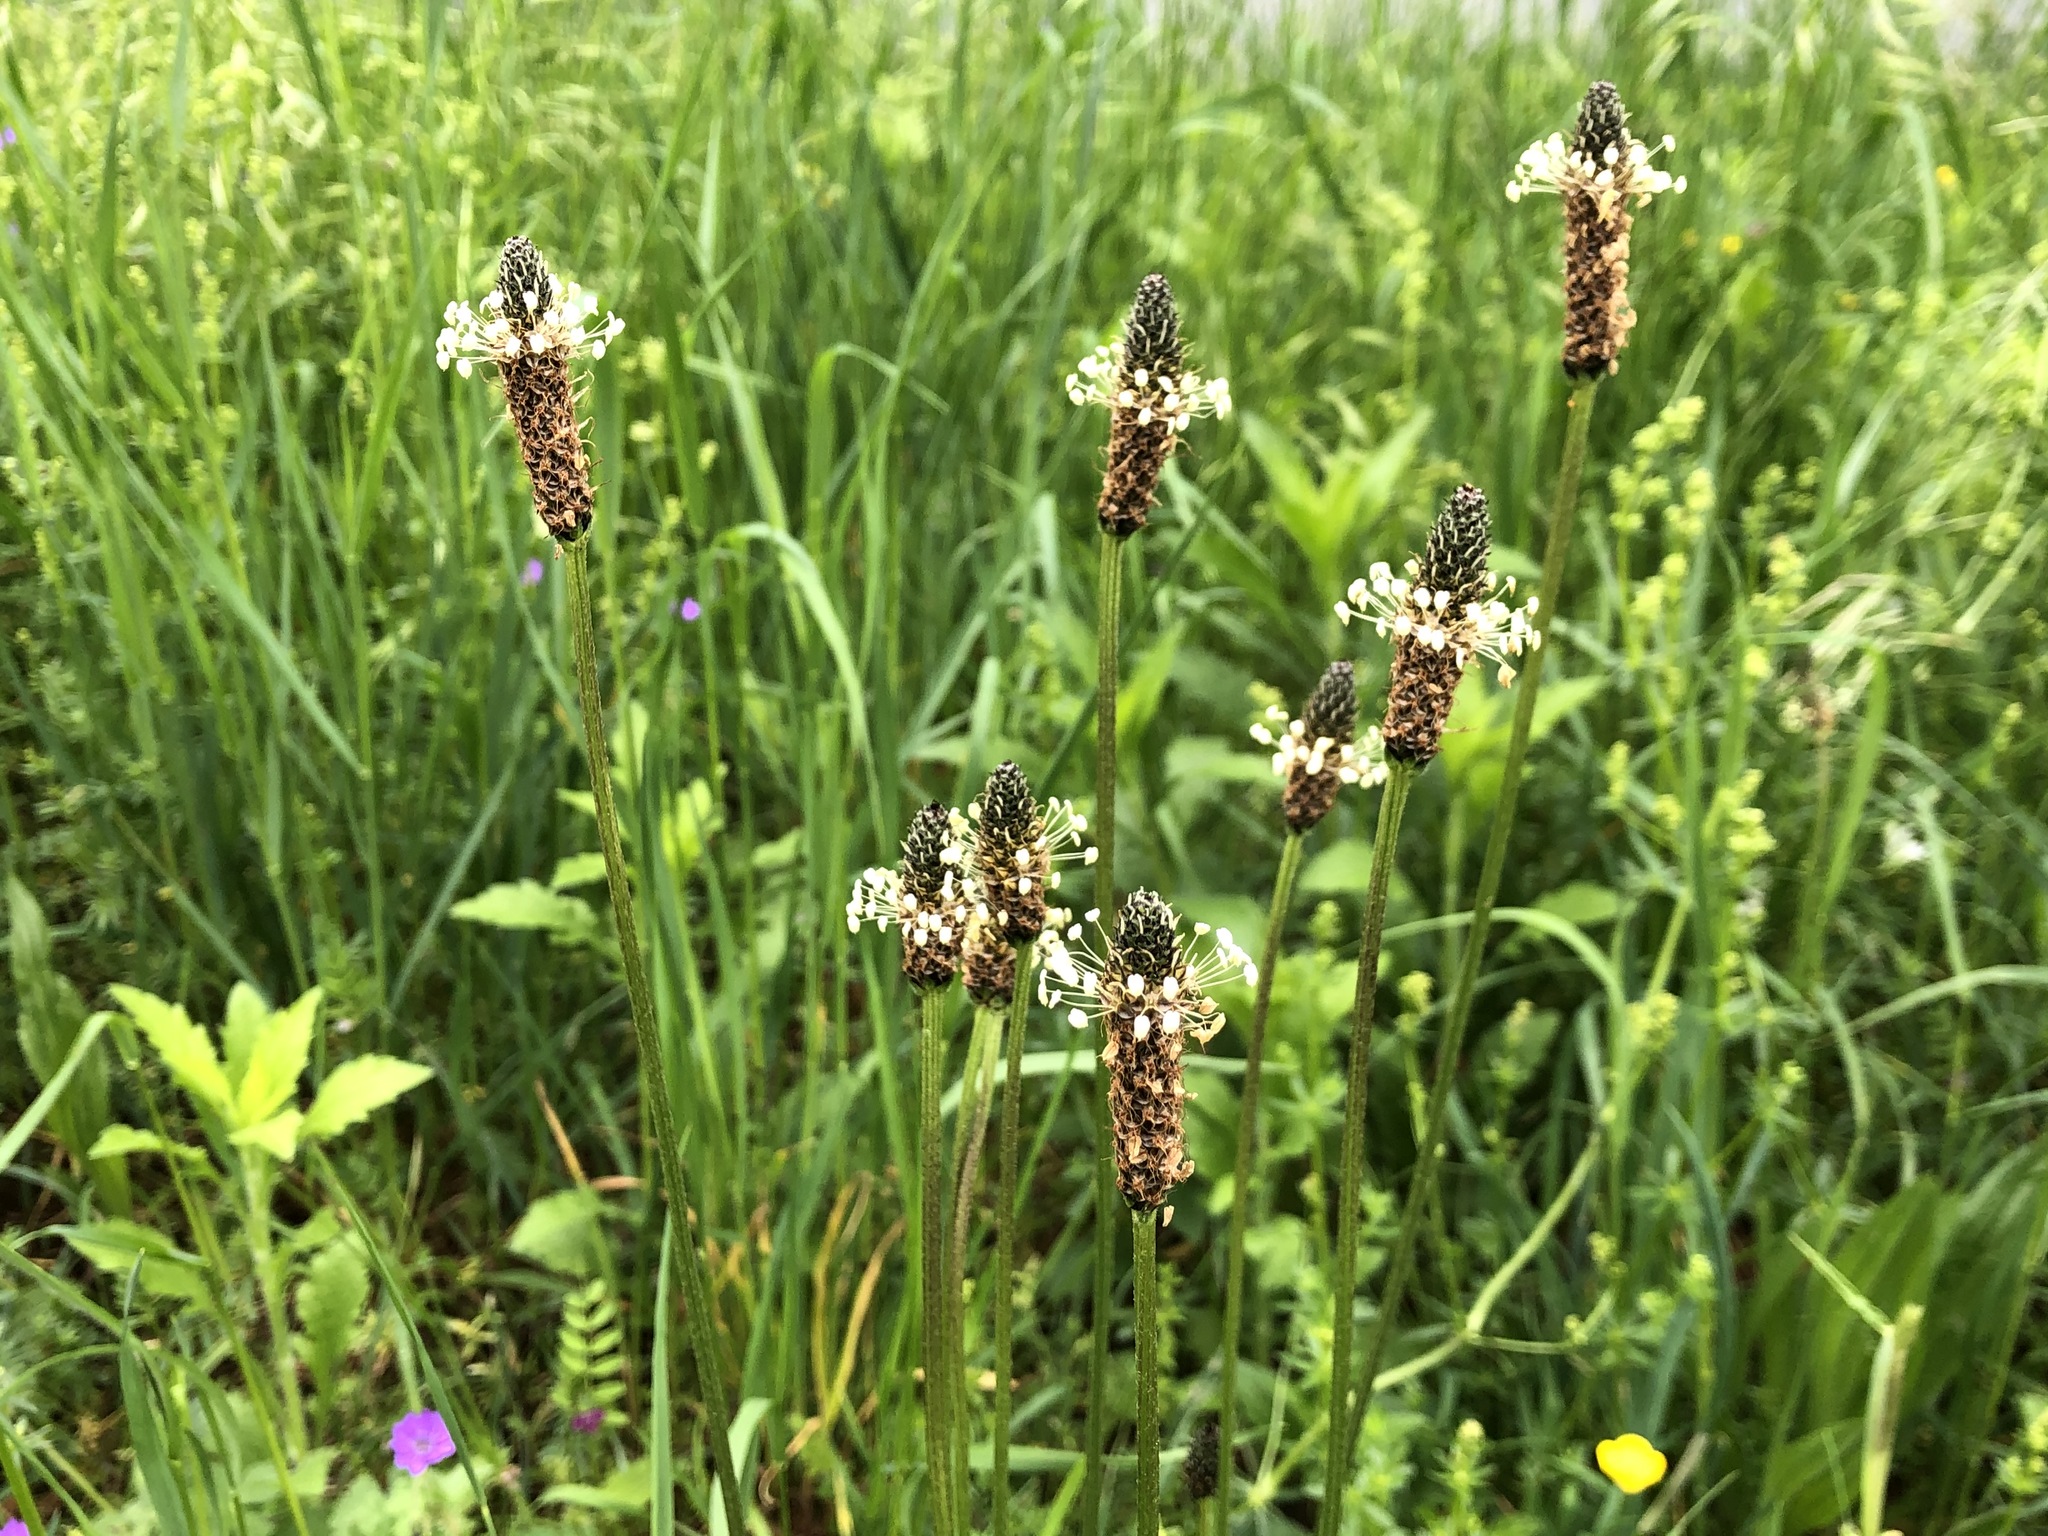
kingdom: Plantae
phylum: Tracheophyta
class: Magnoliopsida
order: Lamiales
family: Plantaginaceae
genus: Plantago
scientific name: Plantago lanceolata
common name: Ribwort plantain
